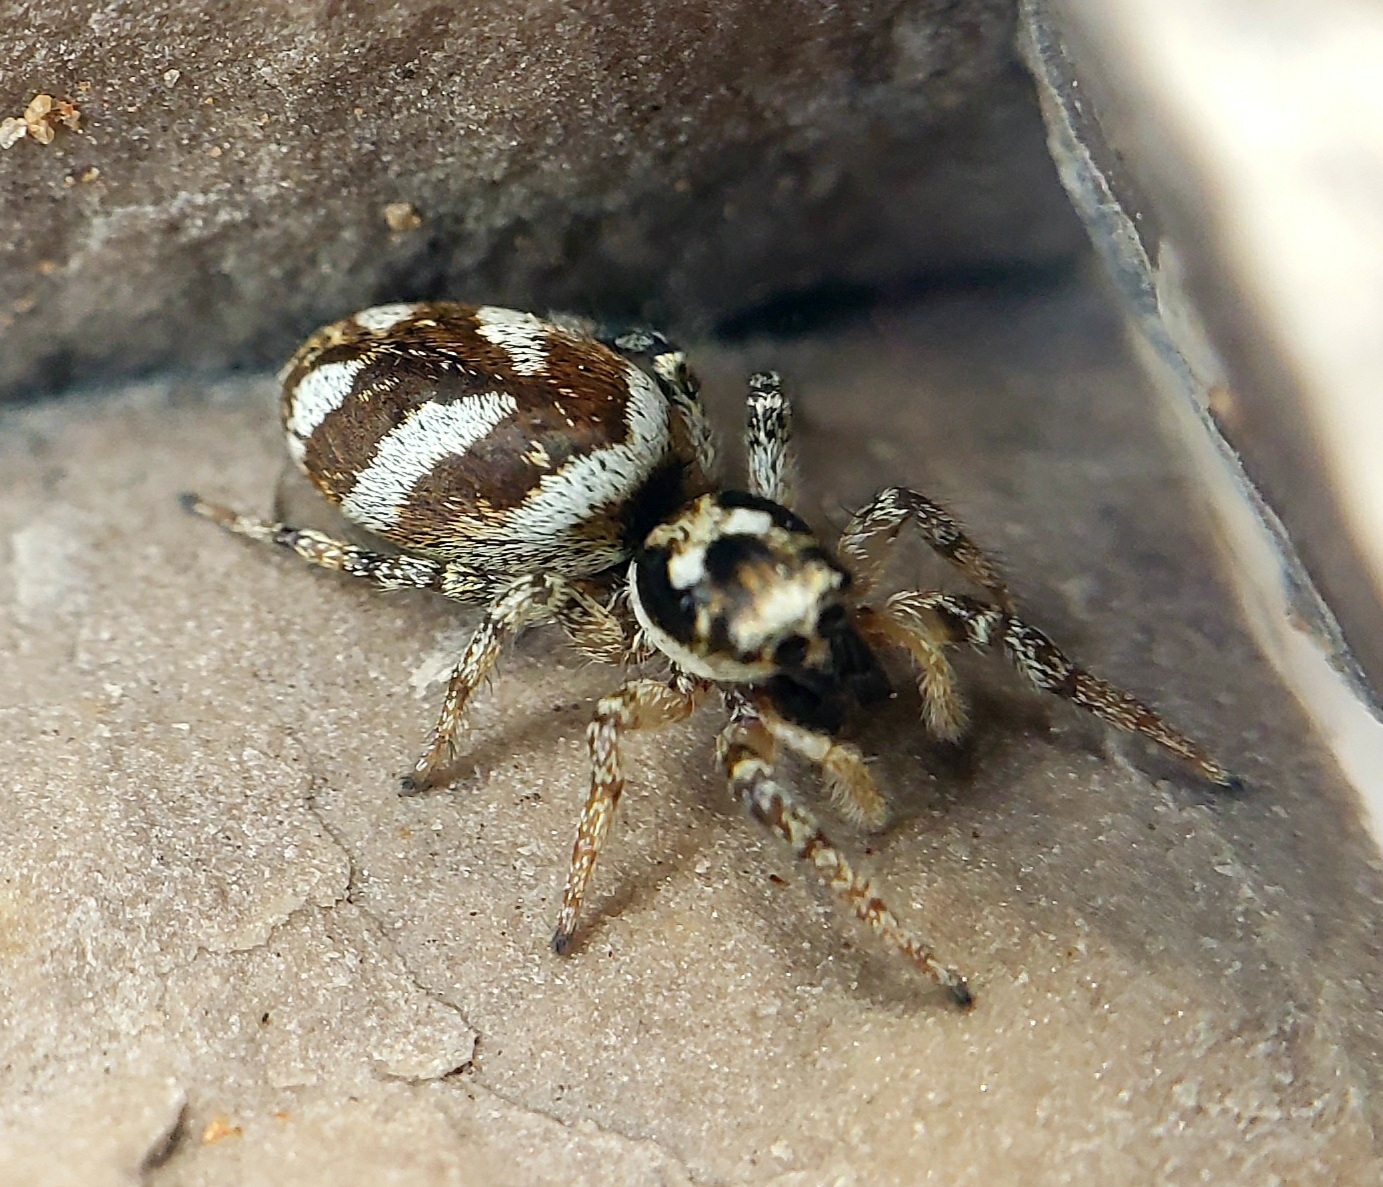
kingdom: Animalia
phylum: Arthropoda
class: Arachnida
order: Araneae
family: Salticidae
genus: Salticus
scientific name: Salticus scenicus
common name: Zebra jumper
